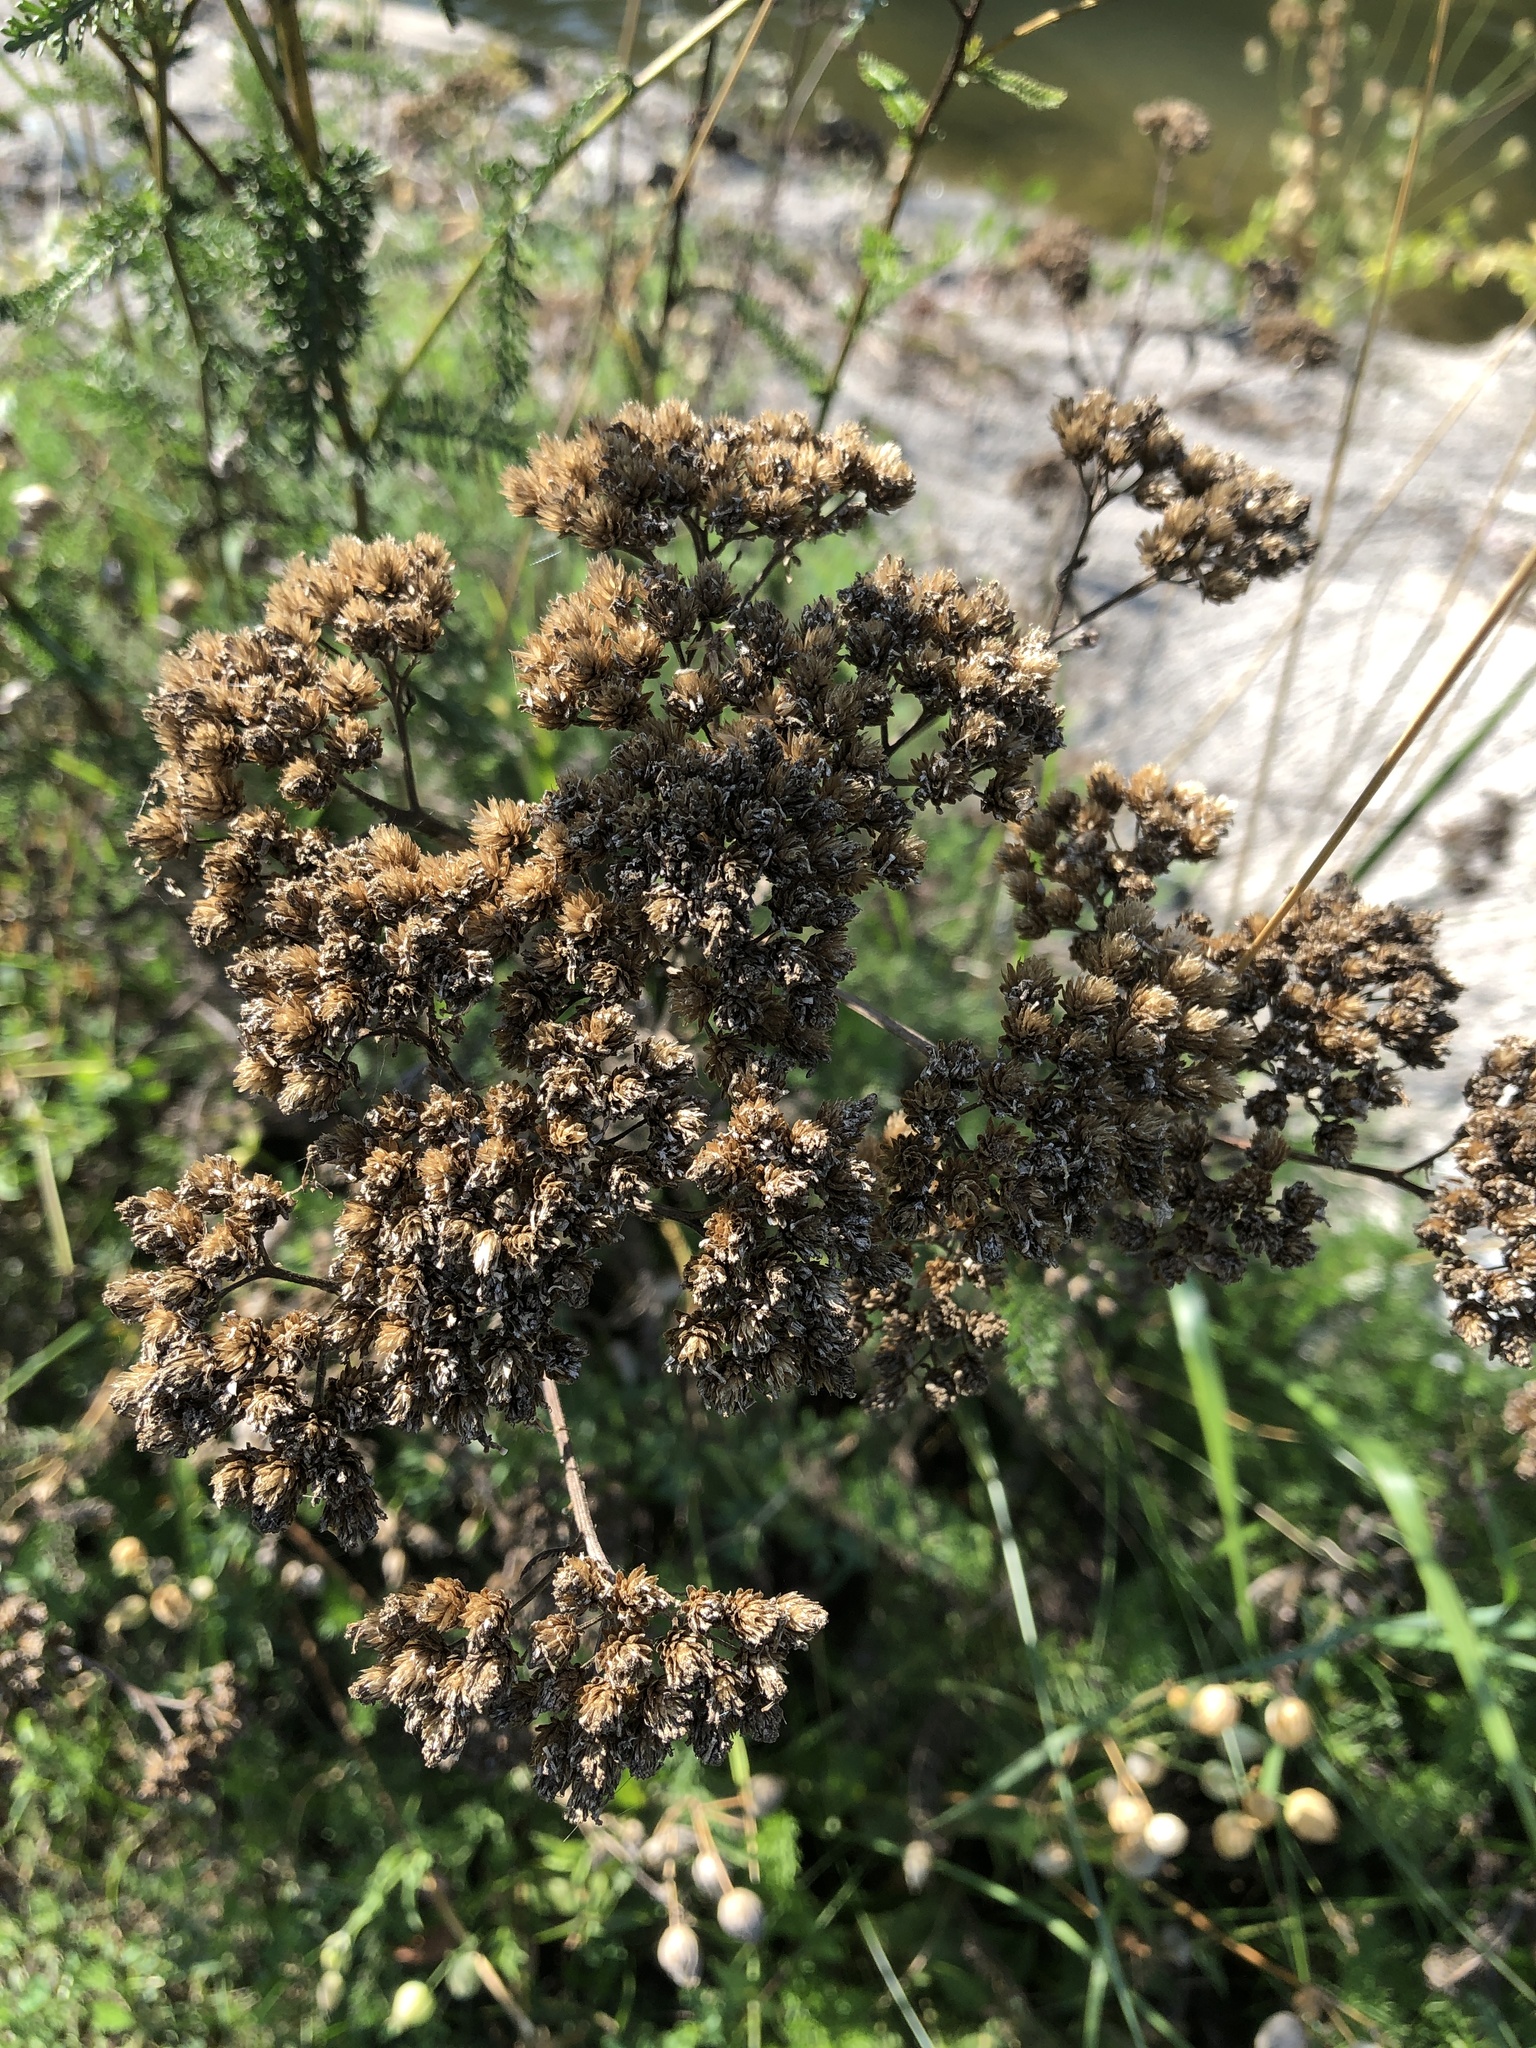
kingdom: Plantae
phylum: Tracheophyta
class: Magnoliopsida
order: Asterales
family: Asteraceae
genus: Achillea
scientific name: Achillea millefolium
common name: Yarrow
